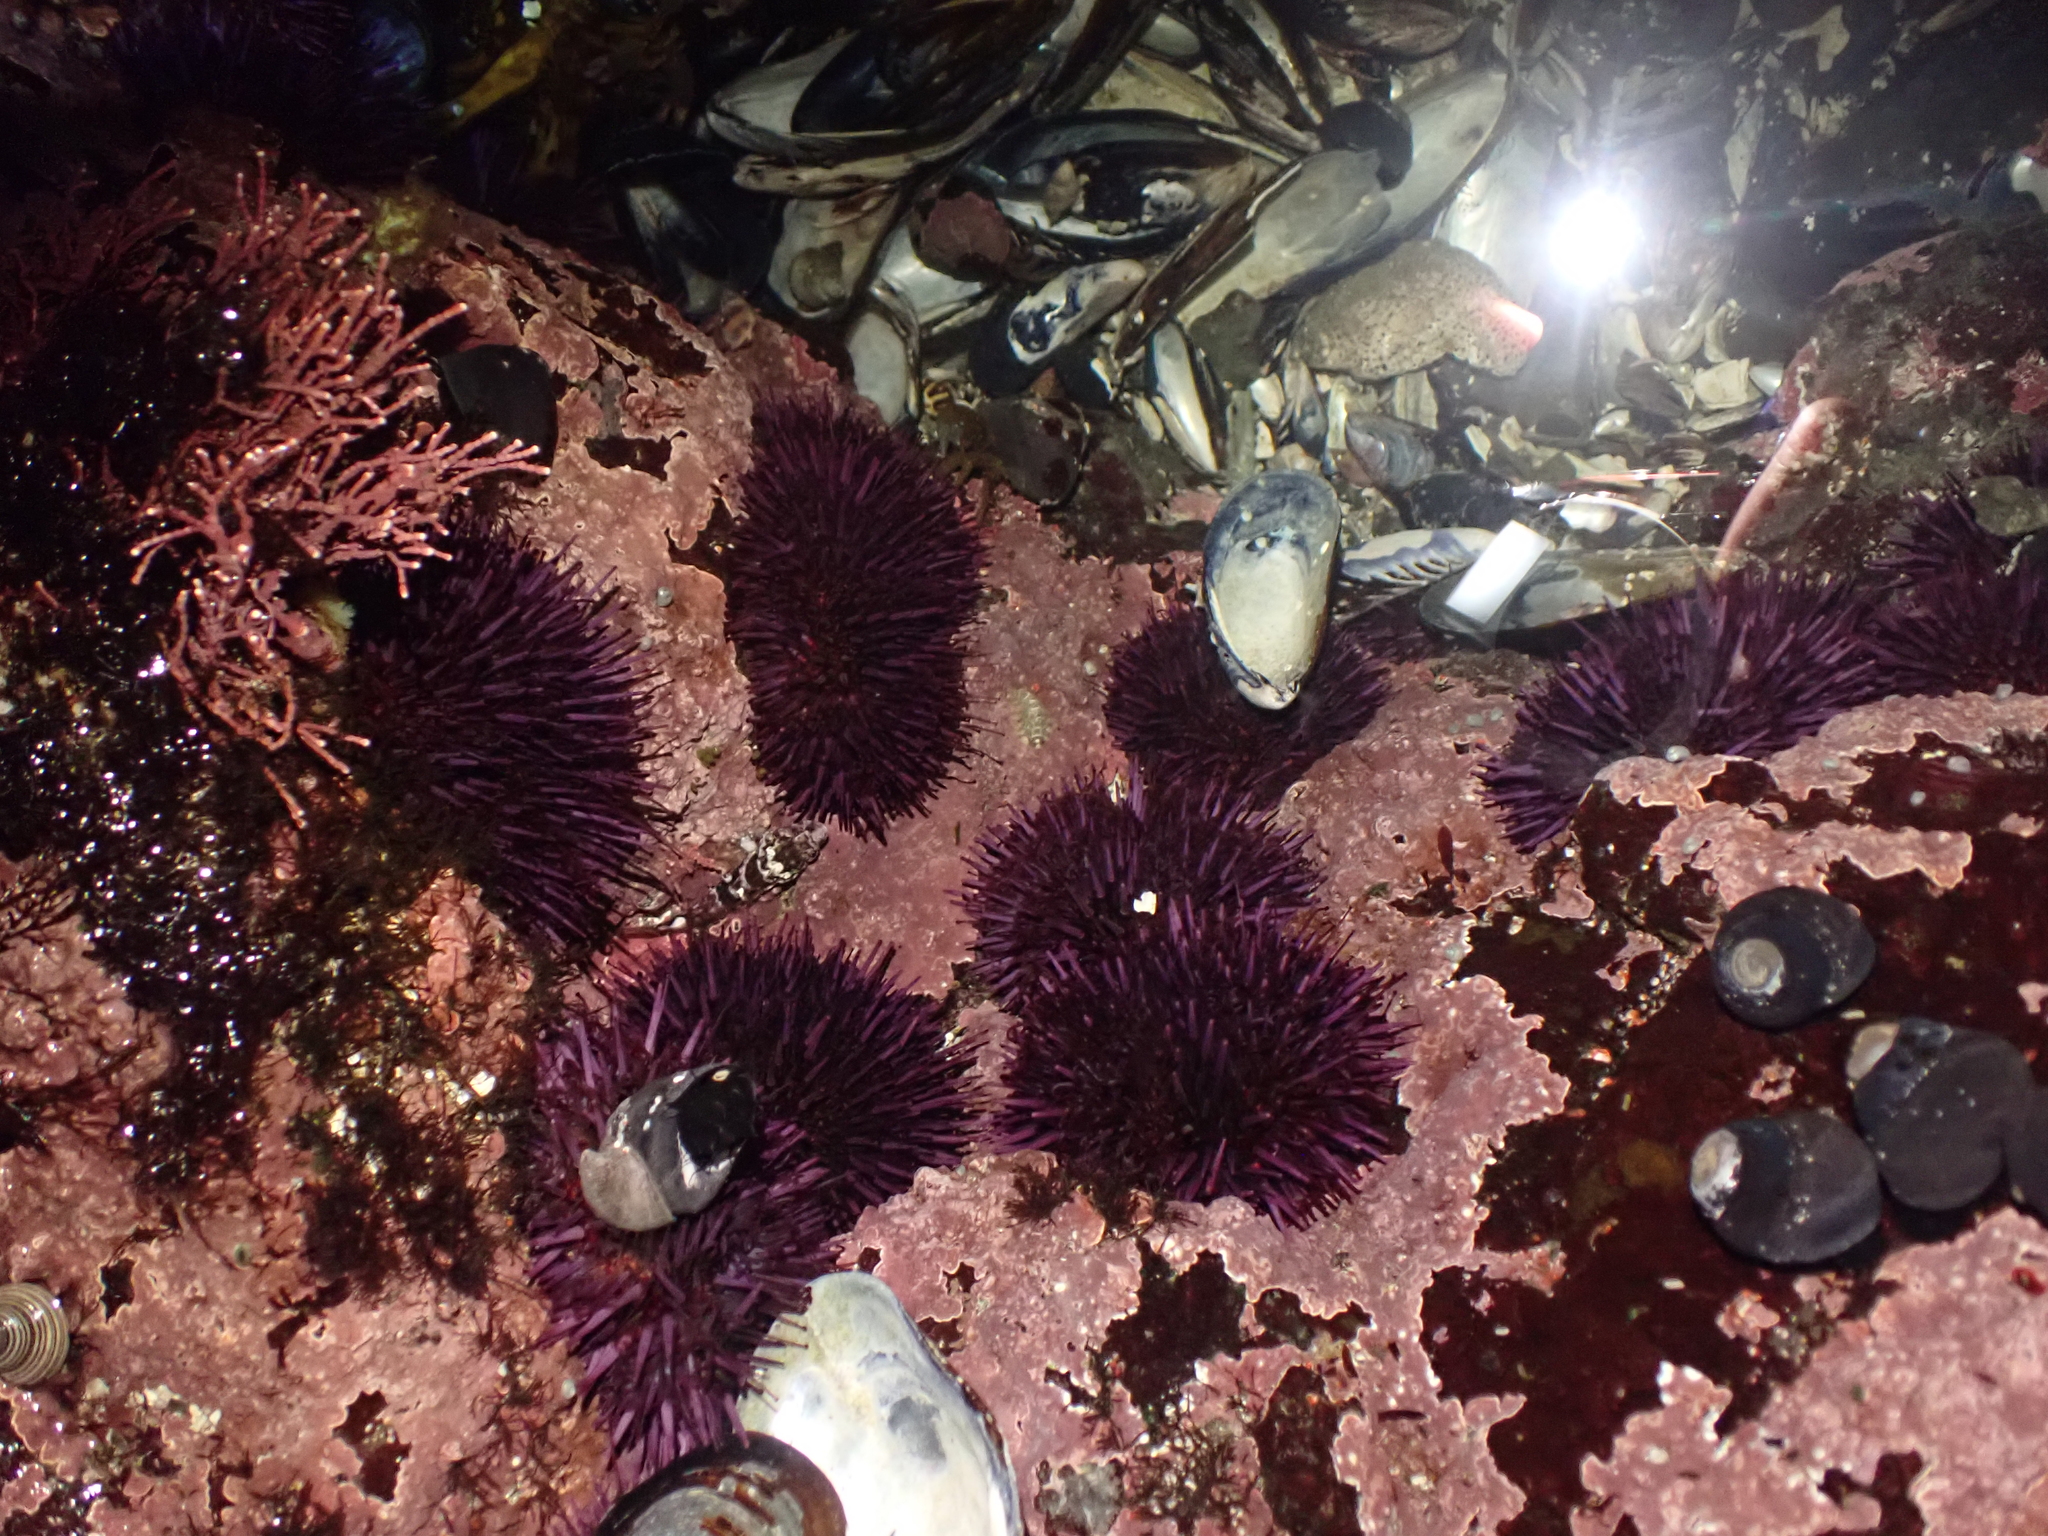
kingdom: Animalia
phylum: Echinodermata
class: Echinoidea
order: Camarodonta
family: Strongylocentrotidae
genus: Strongylocentrotus
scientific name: Strongylocentrotus purpuratus
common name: Purple sea urchin
